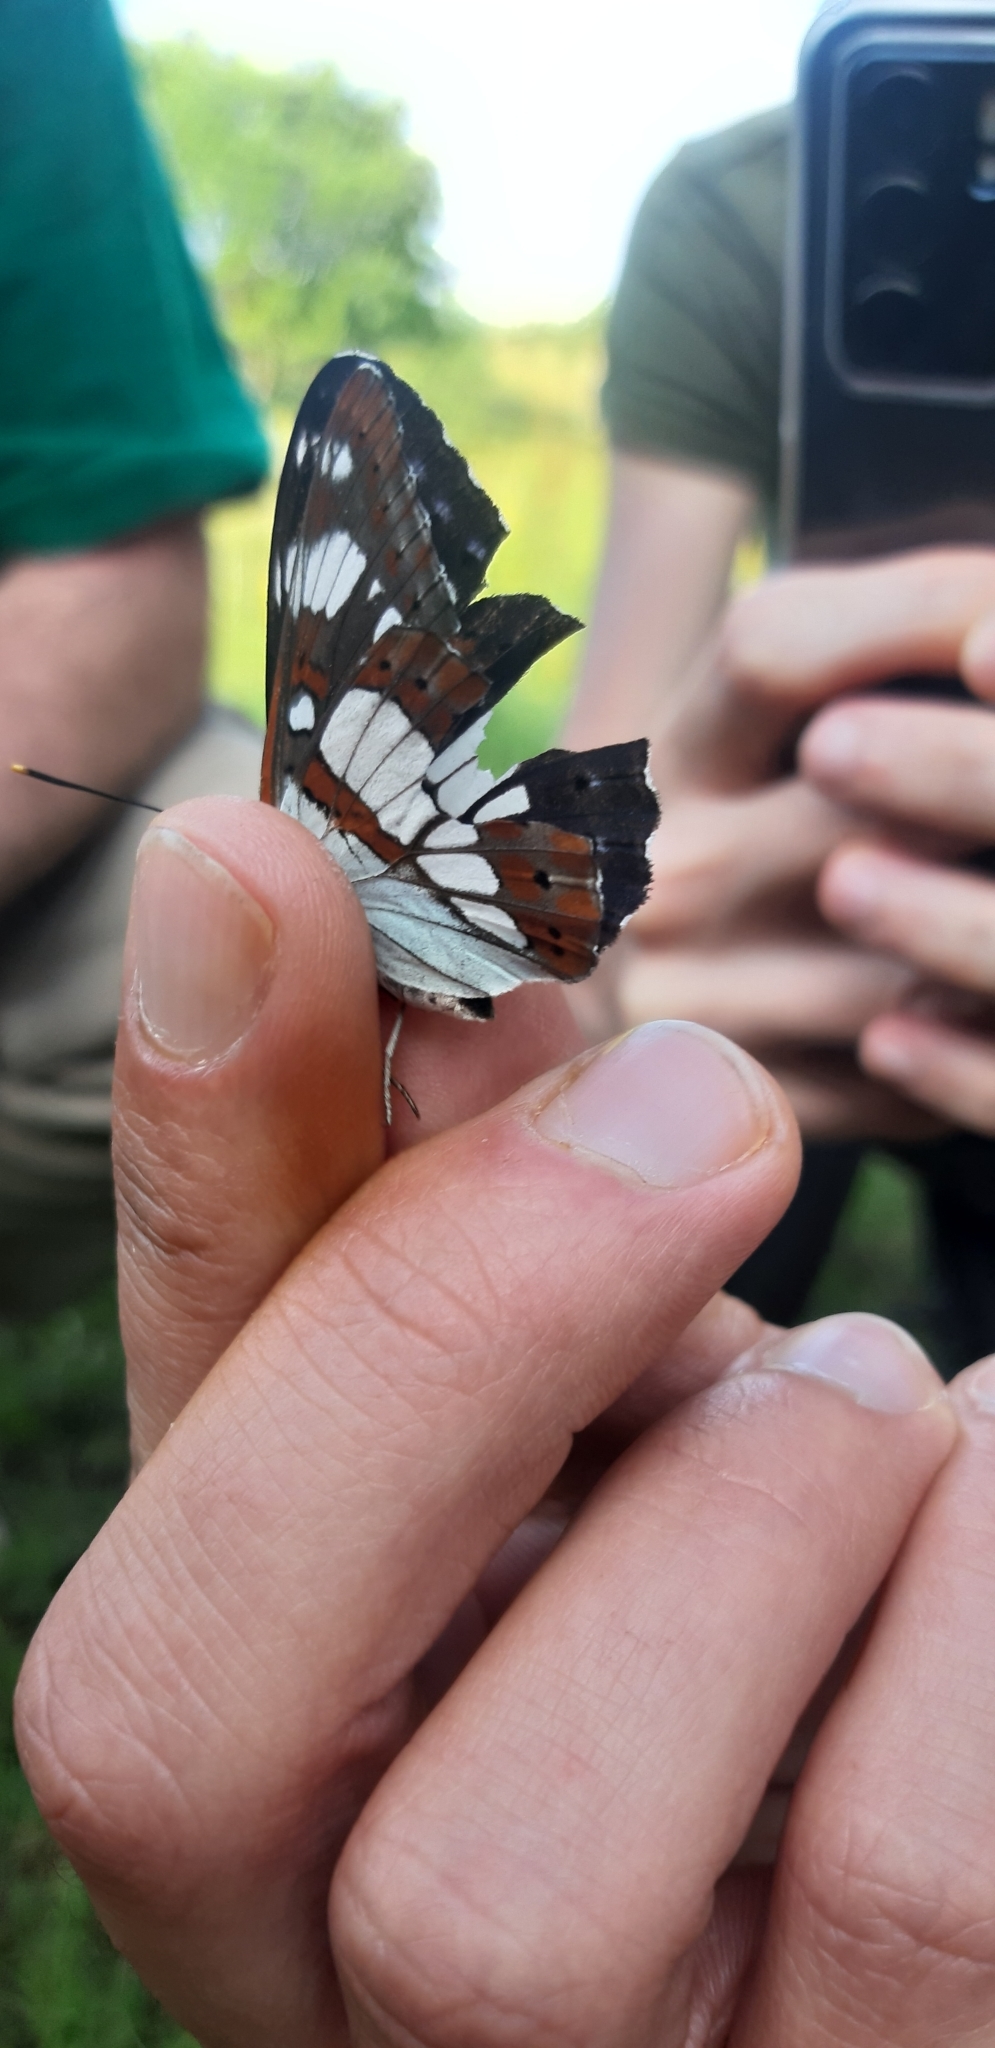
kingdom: Animalia
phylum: Arthropoda
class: Insecta
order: Lepidoptera
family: Nymphalidae
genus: Limenitis
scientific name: Limenitis reducta
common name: Southern white admiral
